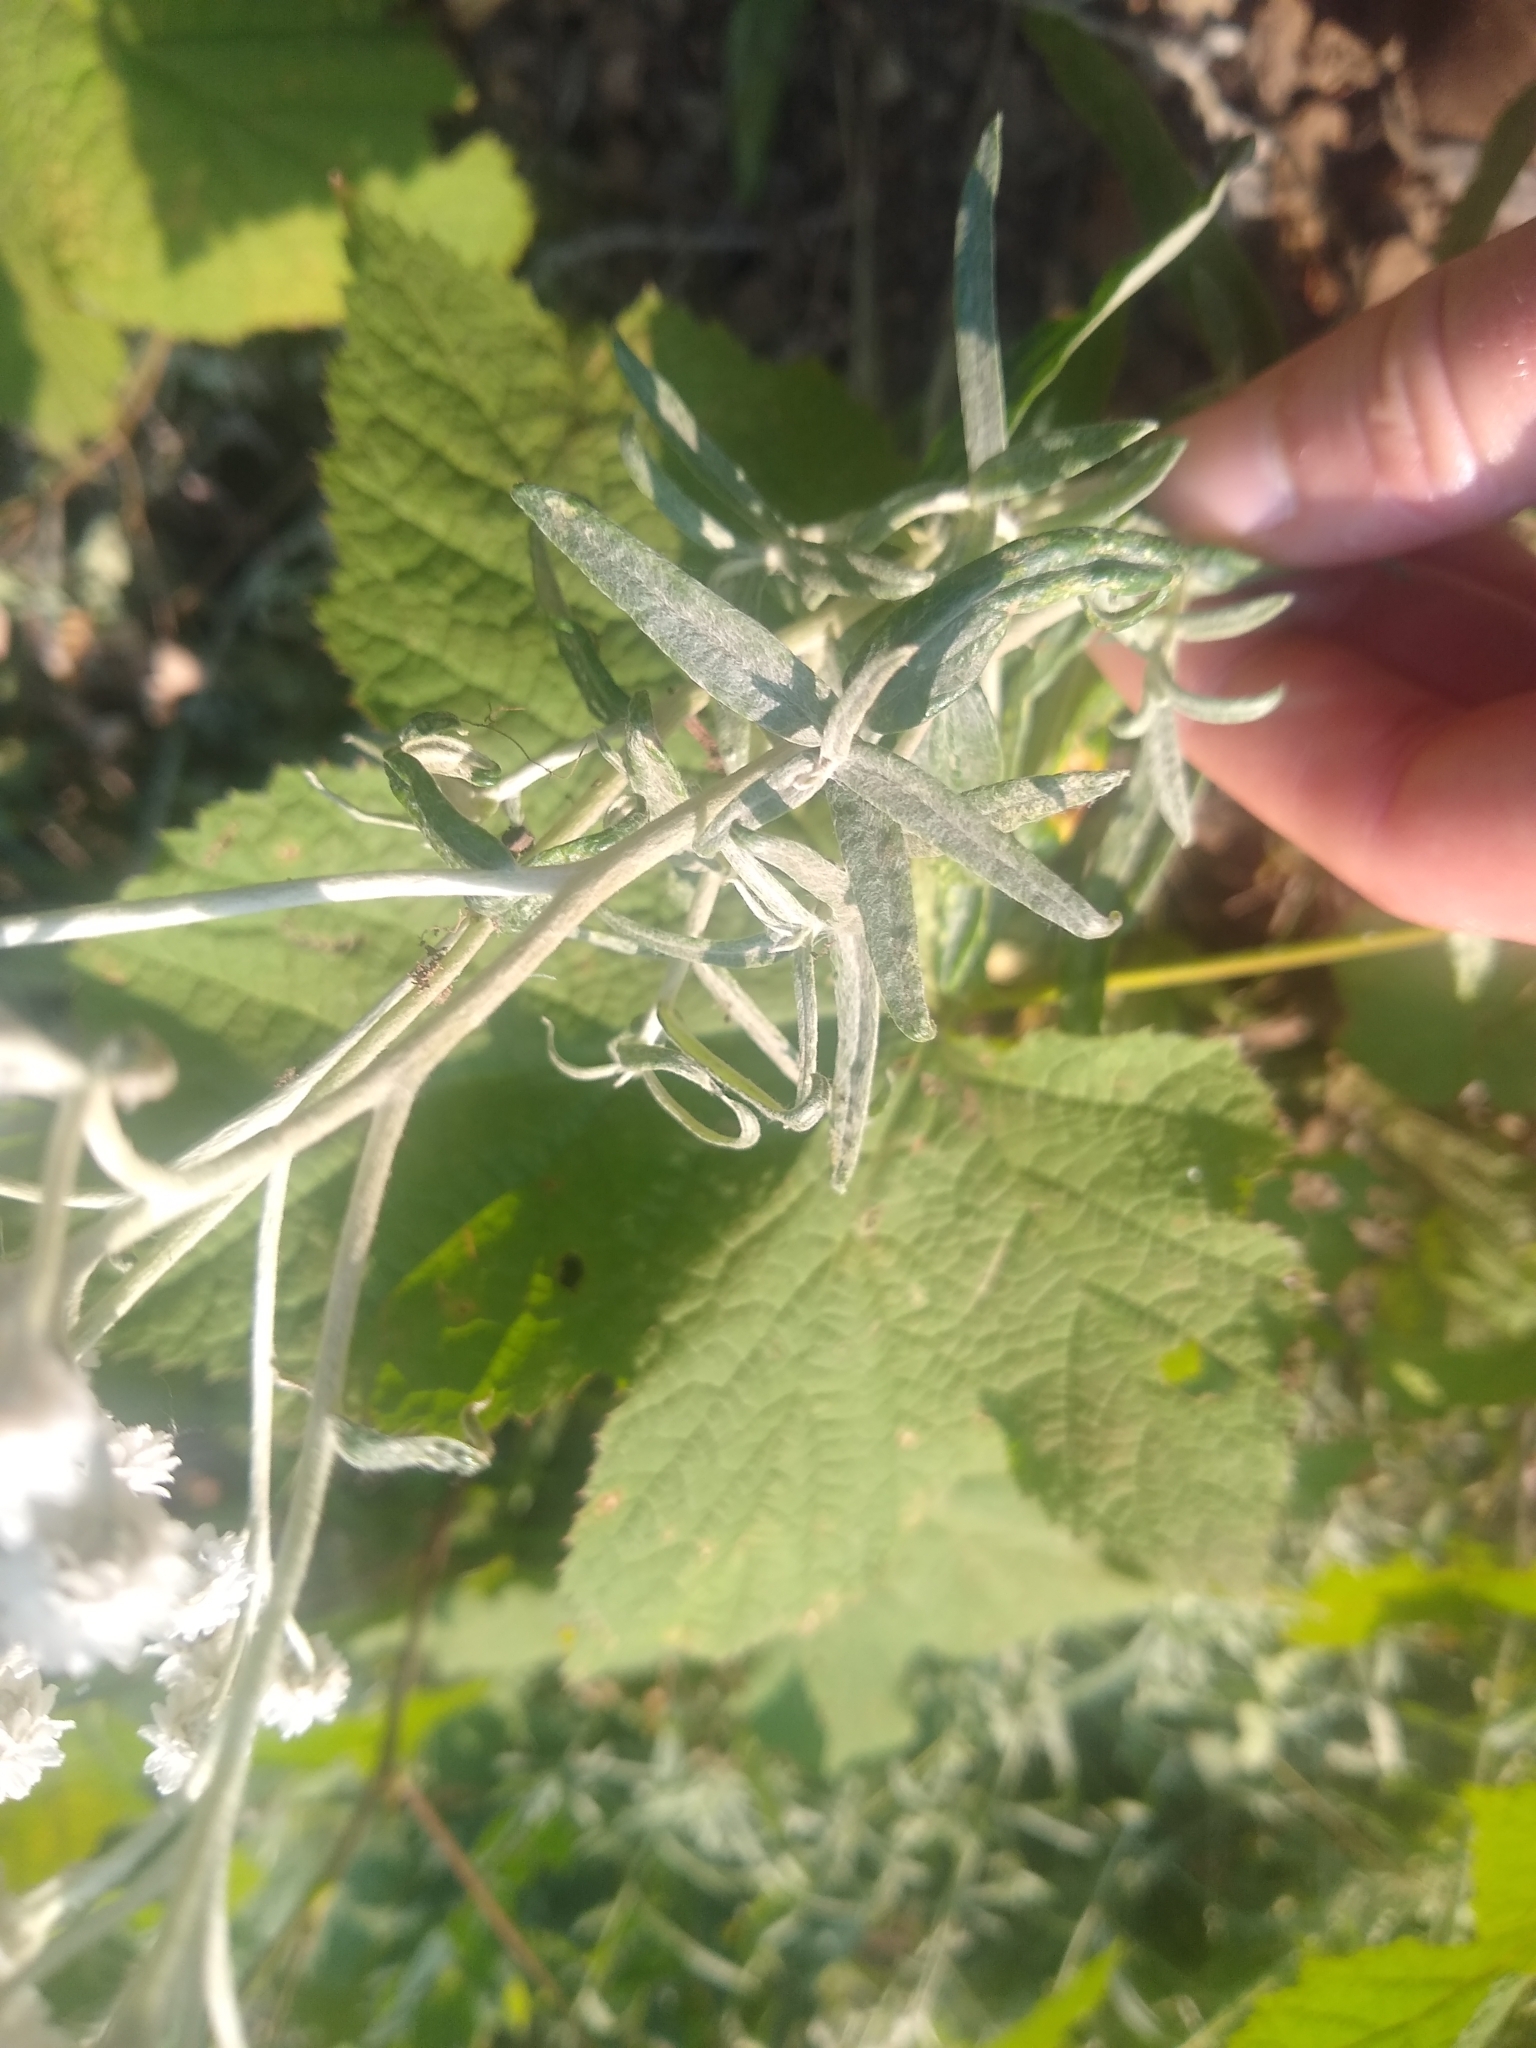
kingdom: Plantae
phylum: Tracheophyta
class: Magnoliopsida
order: Asterales
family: Asteraceae
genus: Anaphalis
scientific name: Anaphalis margaritacea
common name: Pearly everlasting
